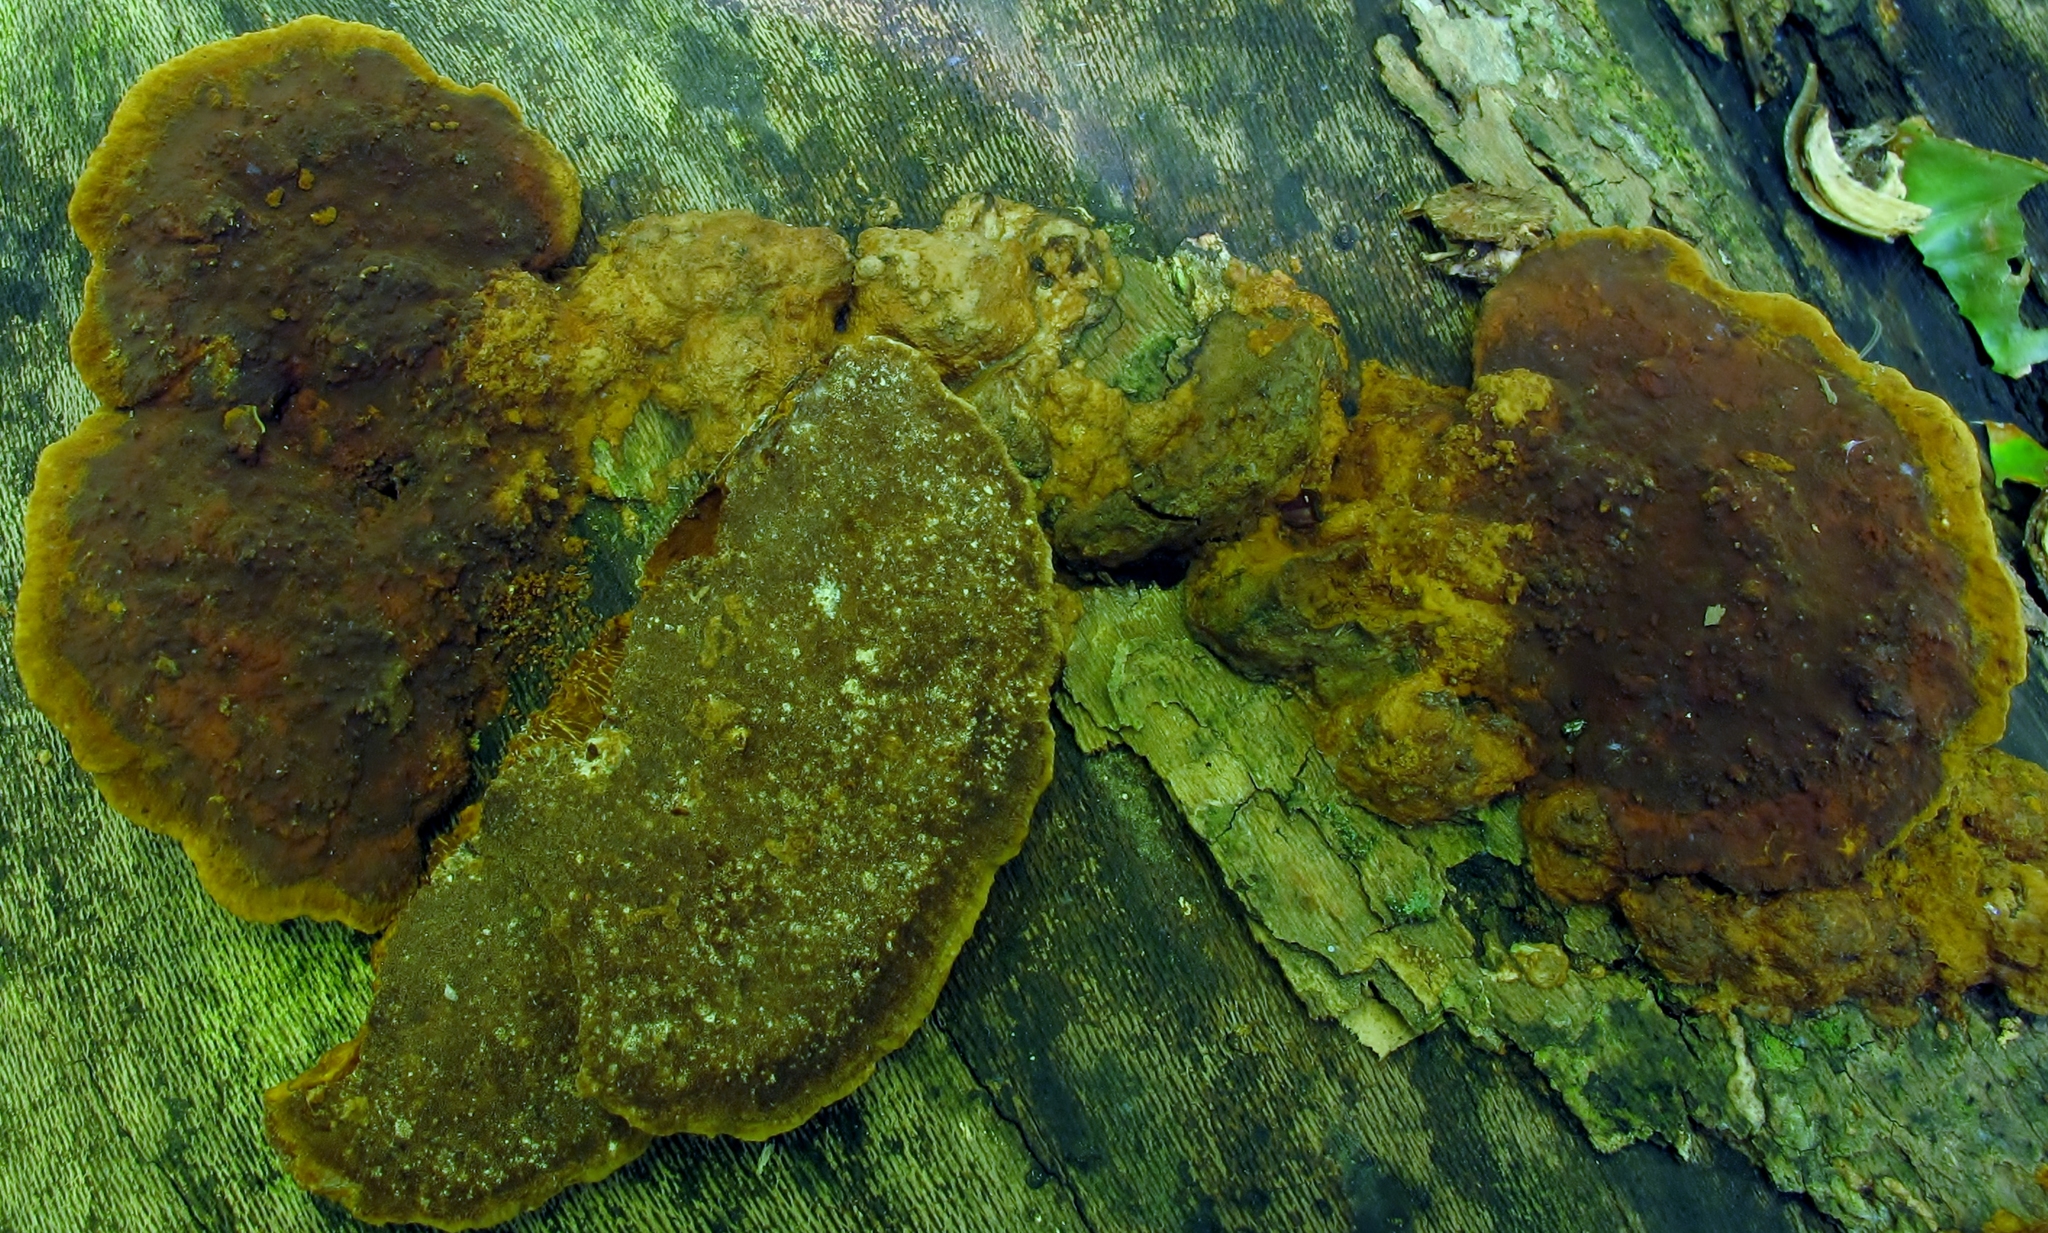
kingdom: Fungi
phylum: Basidiomycota
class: Agaricomycetes
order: Hymenochaetales
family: Hymenochaetaceae
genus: Phellinus
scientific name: Phellinus gilvus
